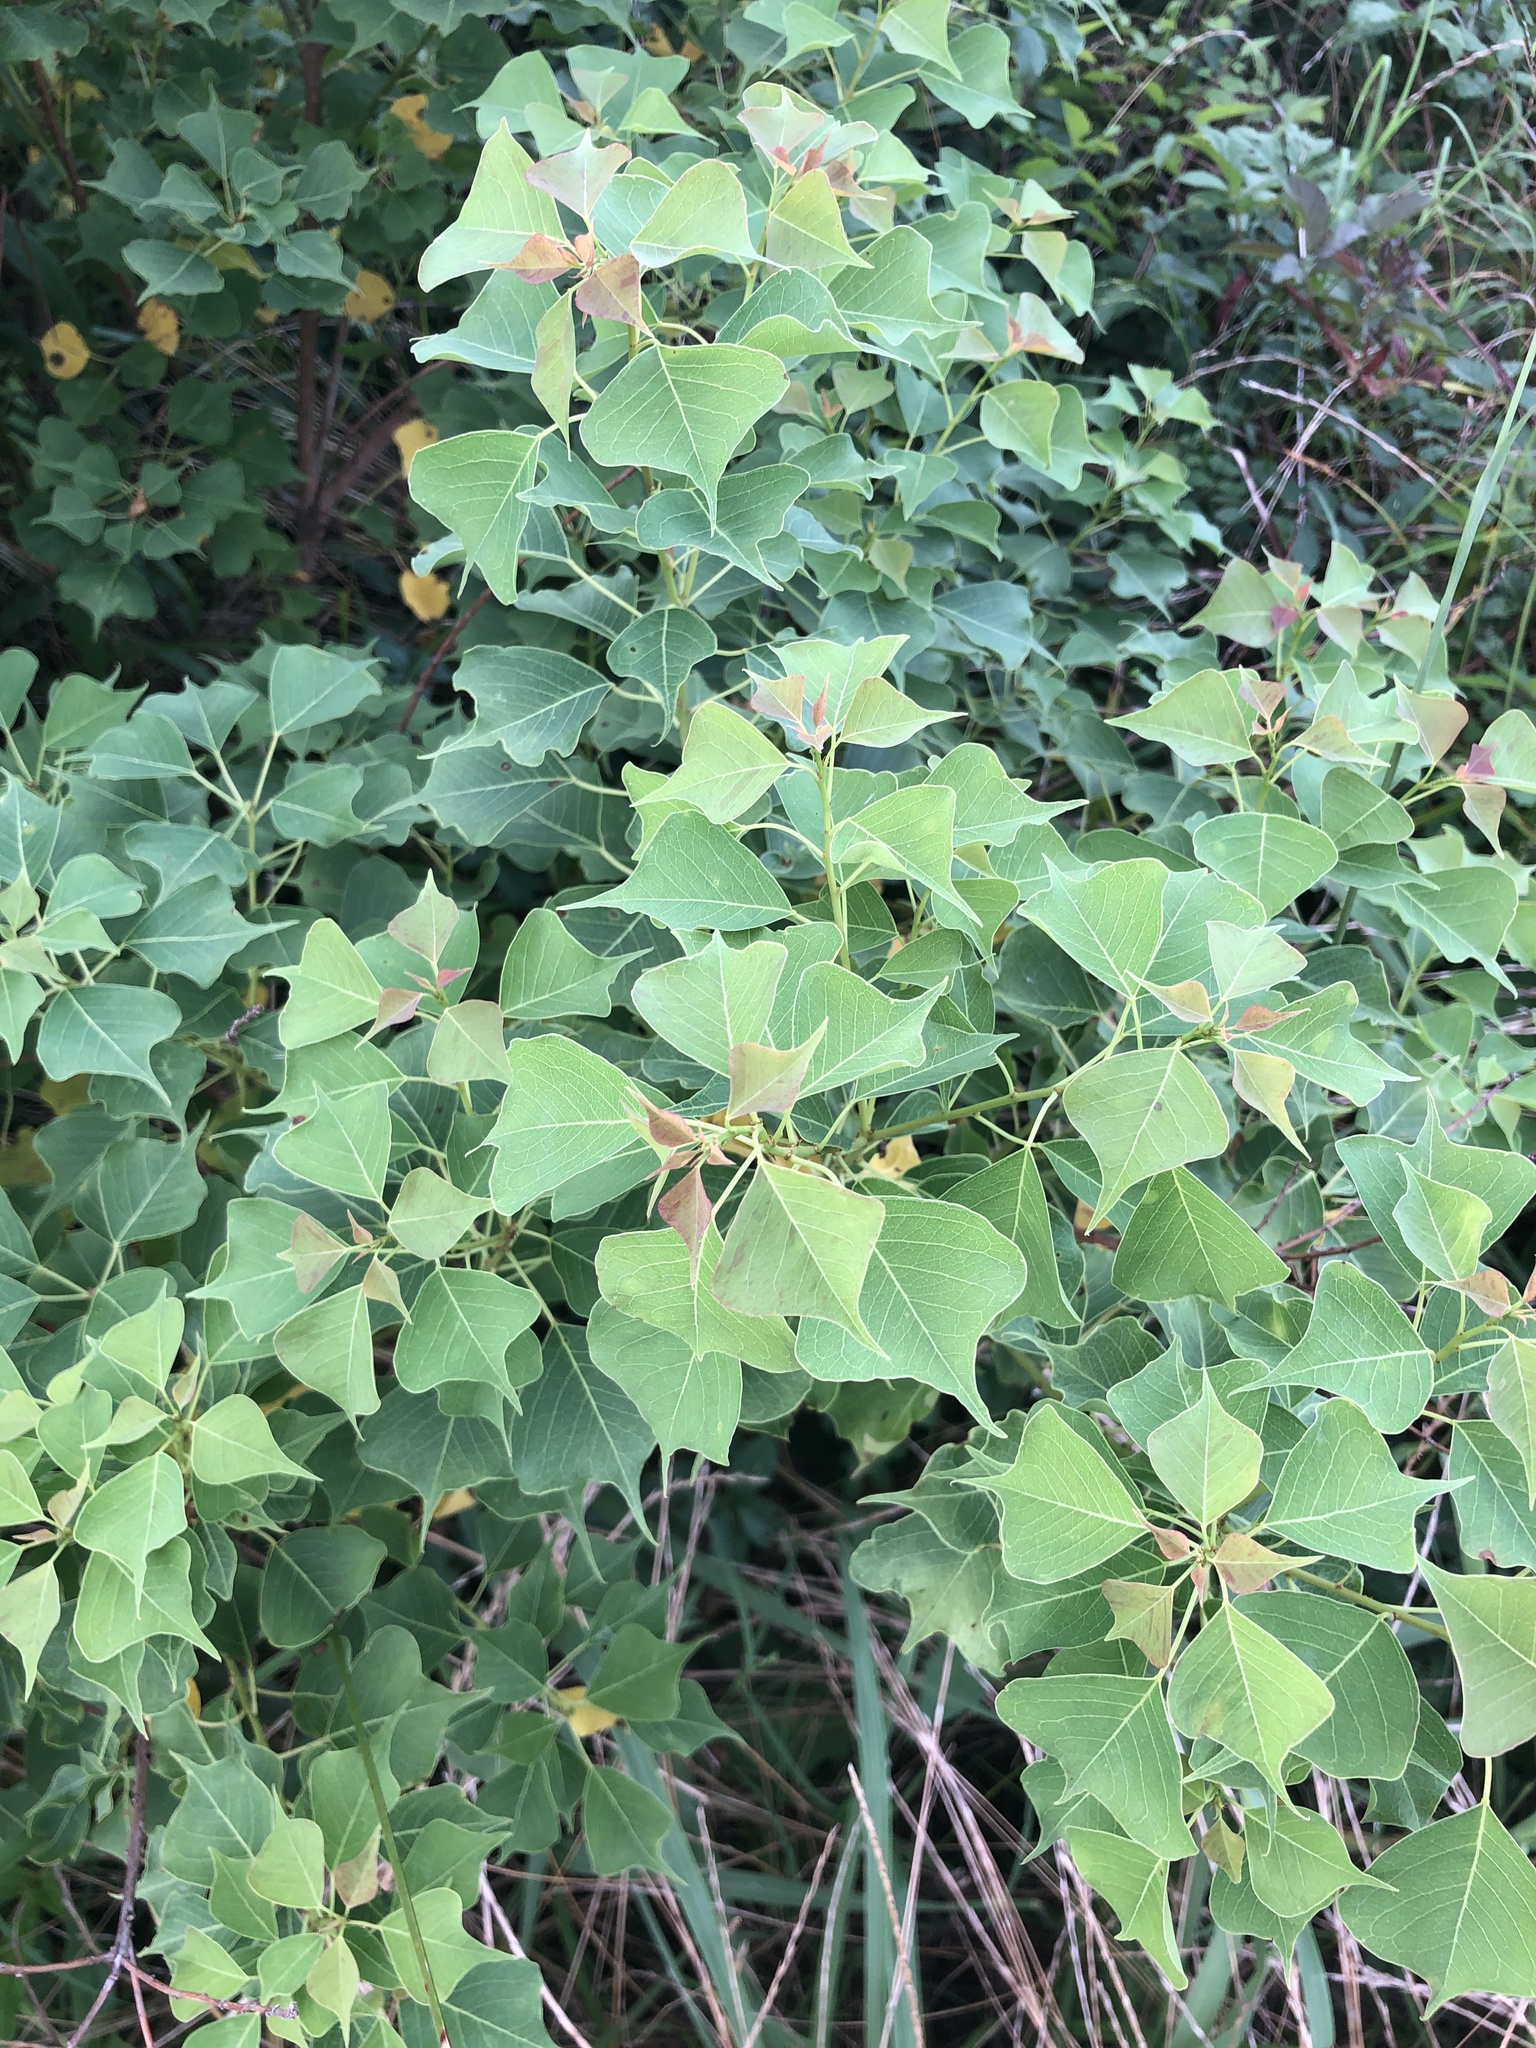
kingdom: Plantae
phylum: Tracheophyta
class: Magnoliopsida
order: Malpighiales
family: Euphorbiaceae
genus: Triadica
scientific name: Triadica sebifera
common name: Chinese tallow
